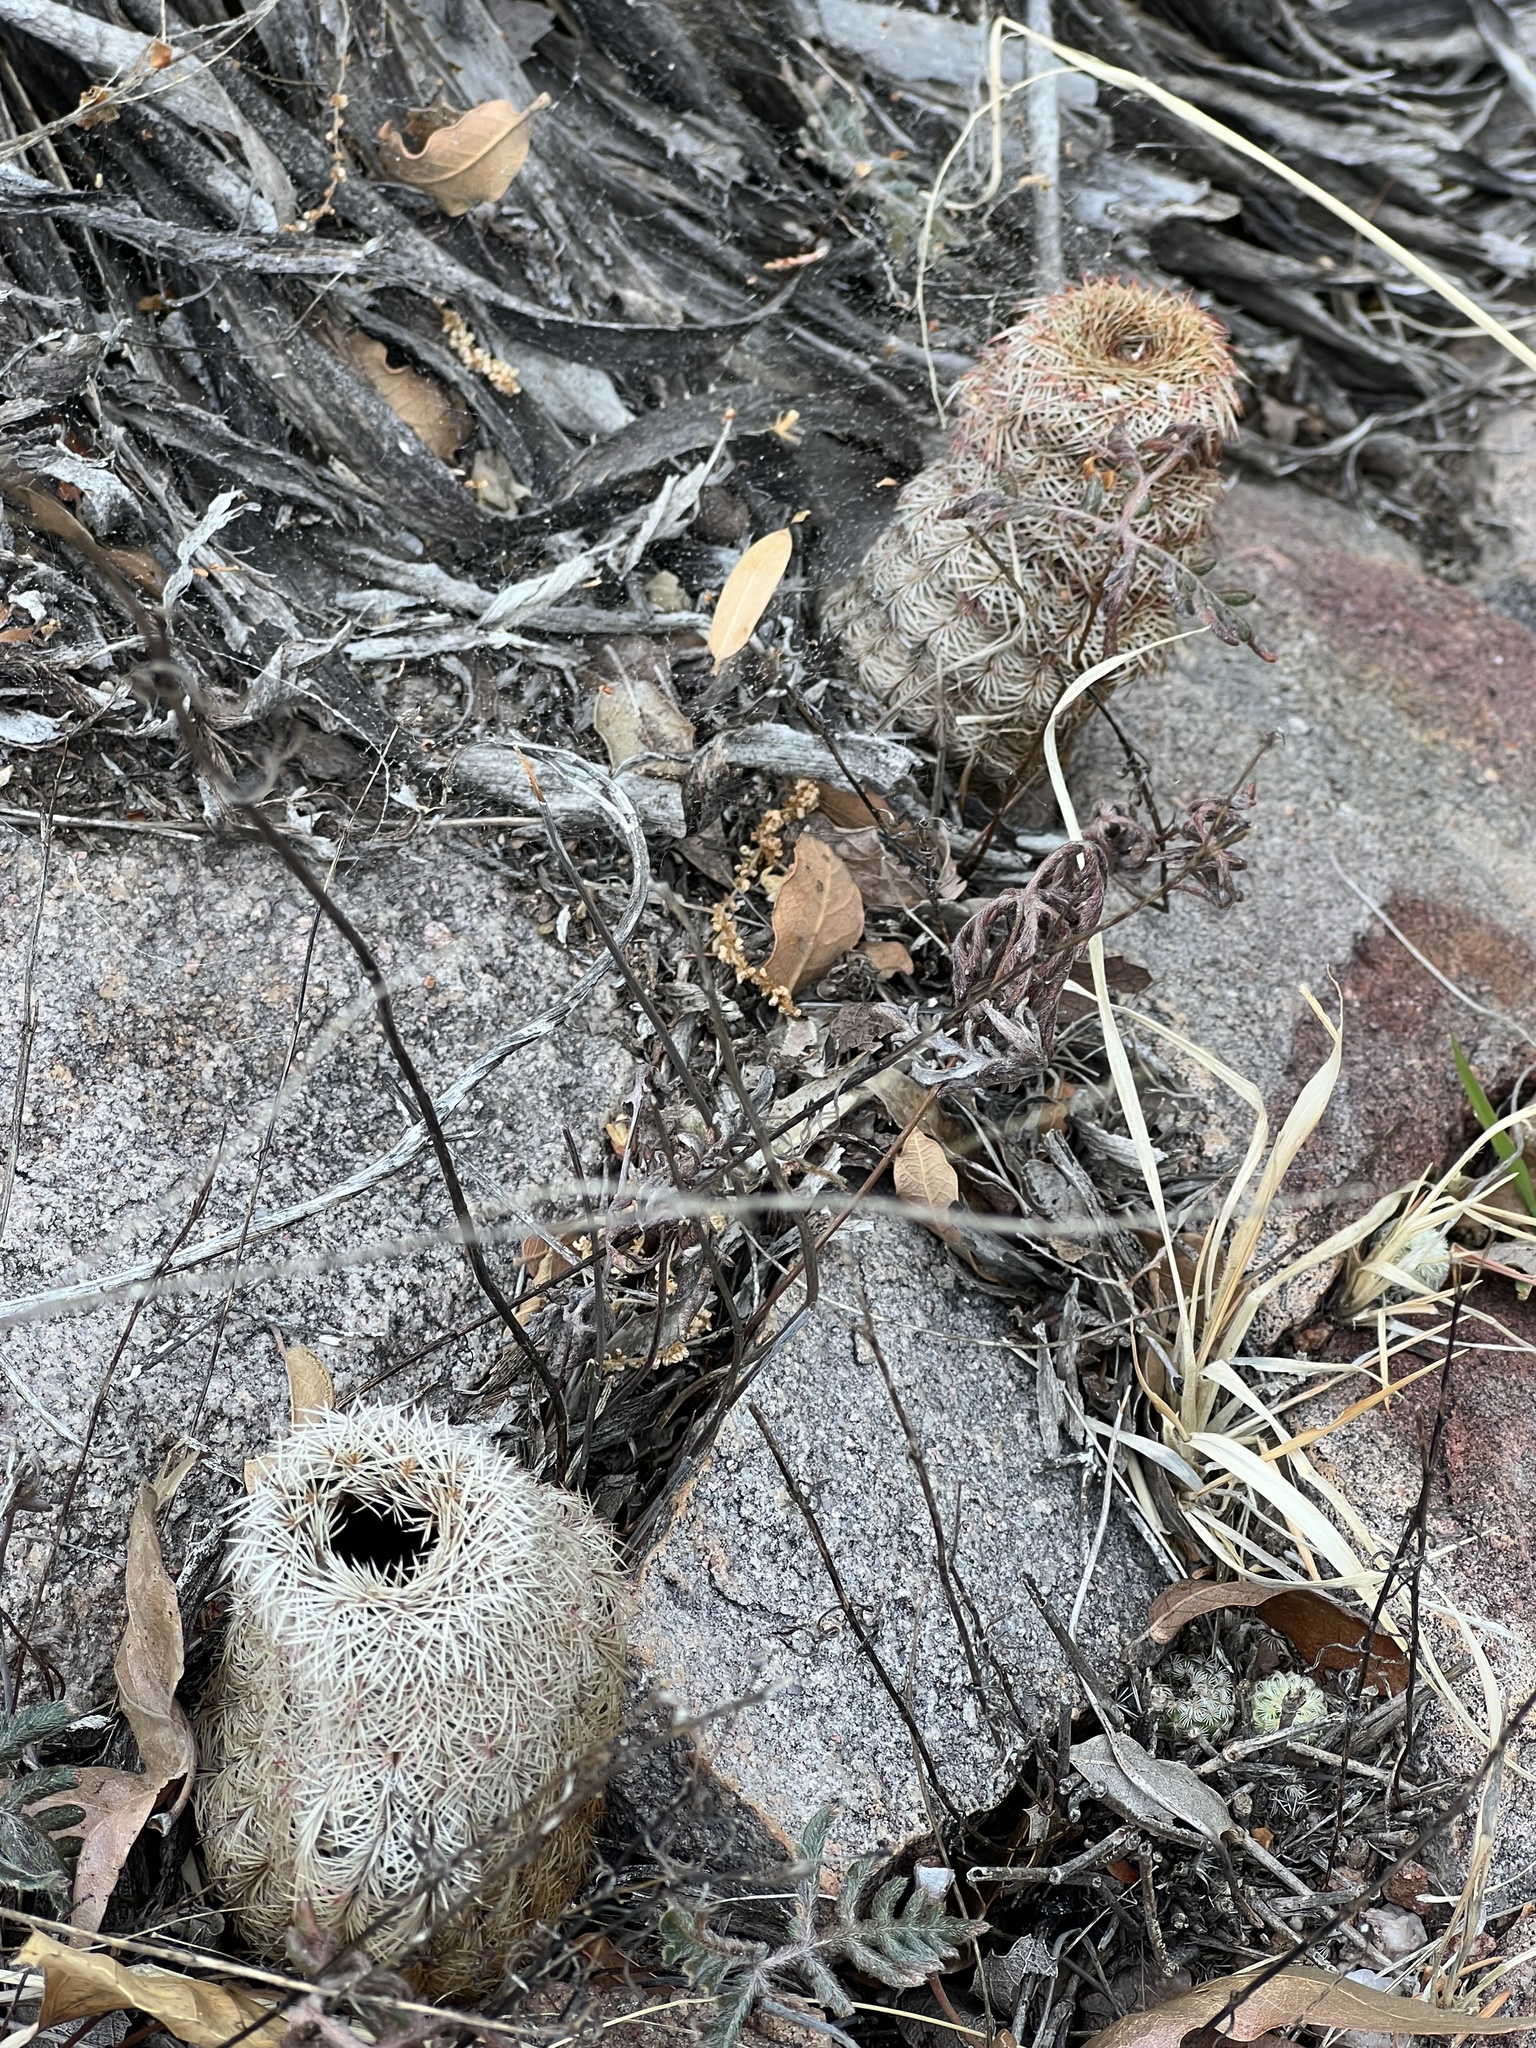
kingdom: Plantae
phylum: Tracheophyta
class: Magnoliopsida
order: Caryophyllales
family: Cactaceae
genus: Echinocereus
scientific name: Echinocereus rigidissimus
